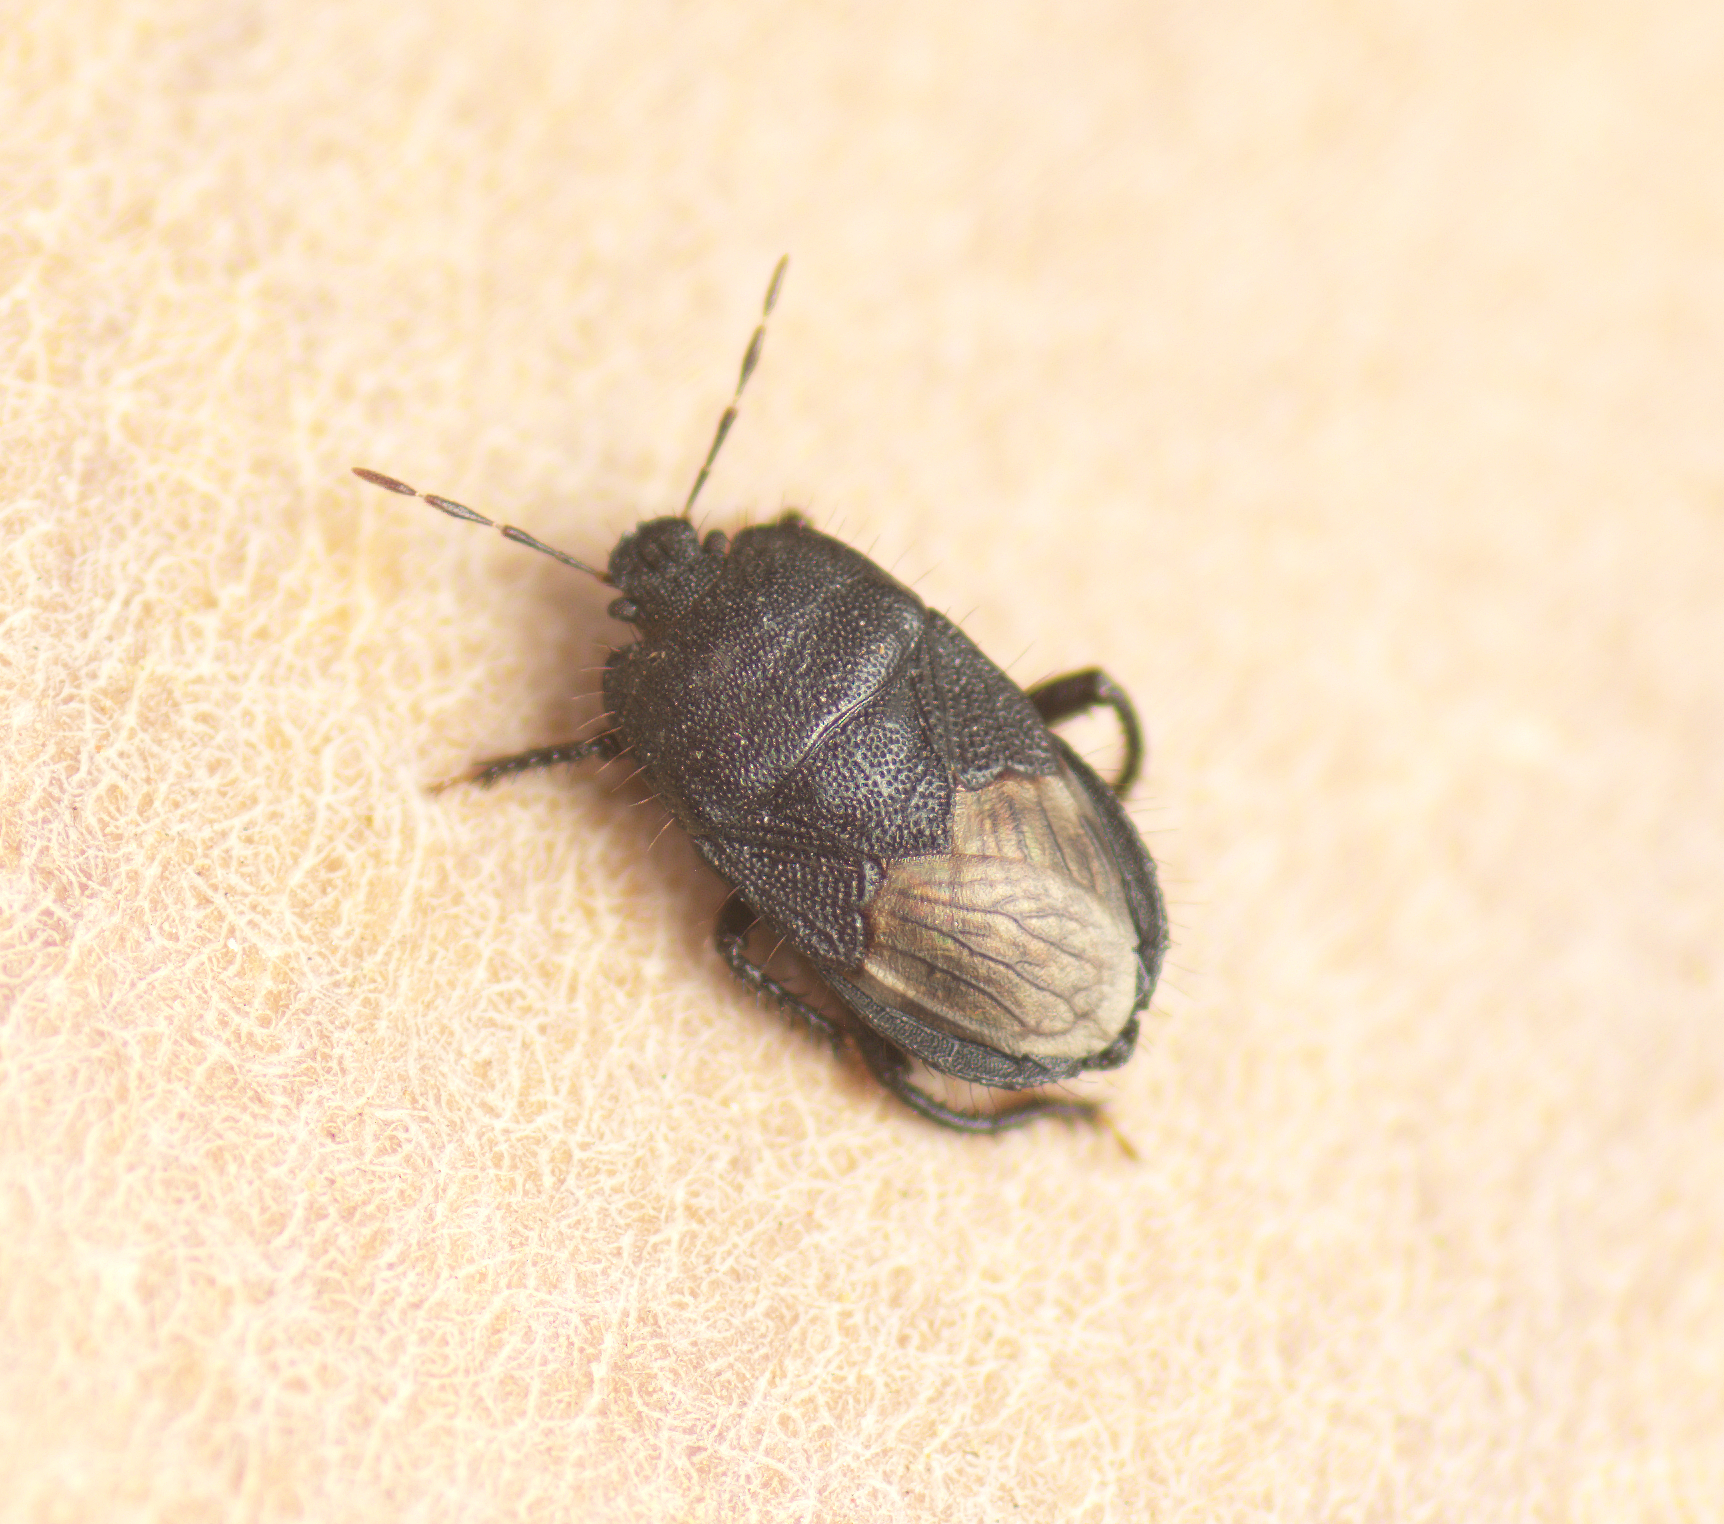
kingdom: Animalia
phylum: Arthropoda
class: Insecta
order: Hemiptera
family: Cydnidae
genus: Blaena
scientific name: Blaena
